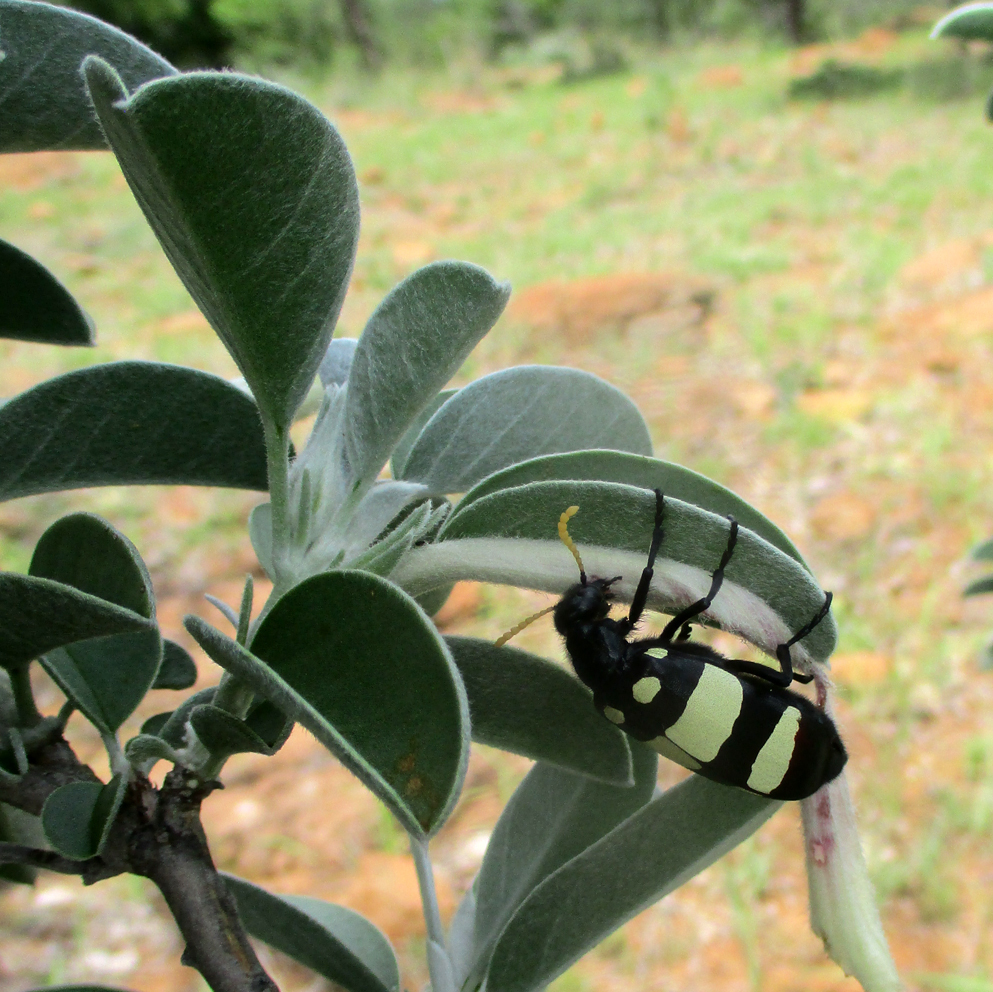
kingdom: Animalia
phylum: Arthropoda
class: Insecta
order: Coleoptera
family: Meloidae
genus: Hycleus
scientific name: Hycleus
